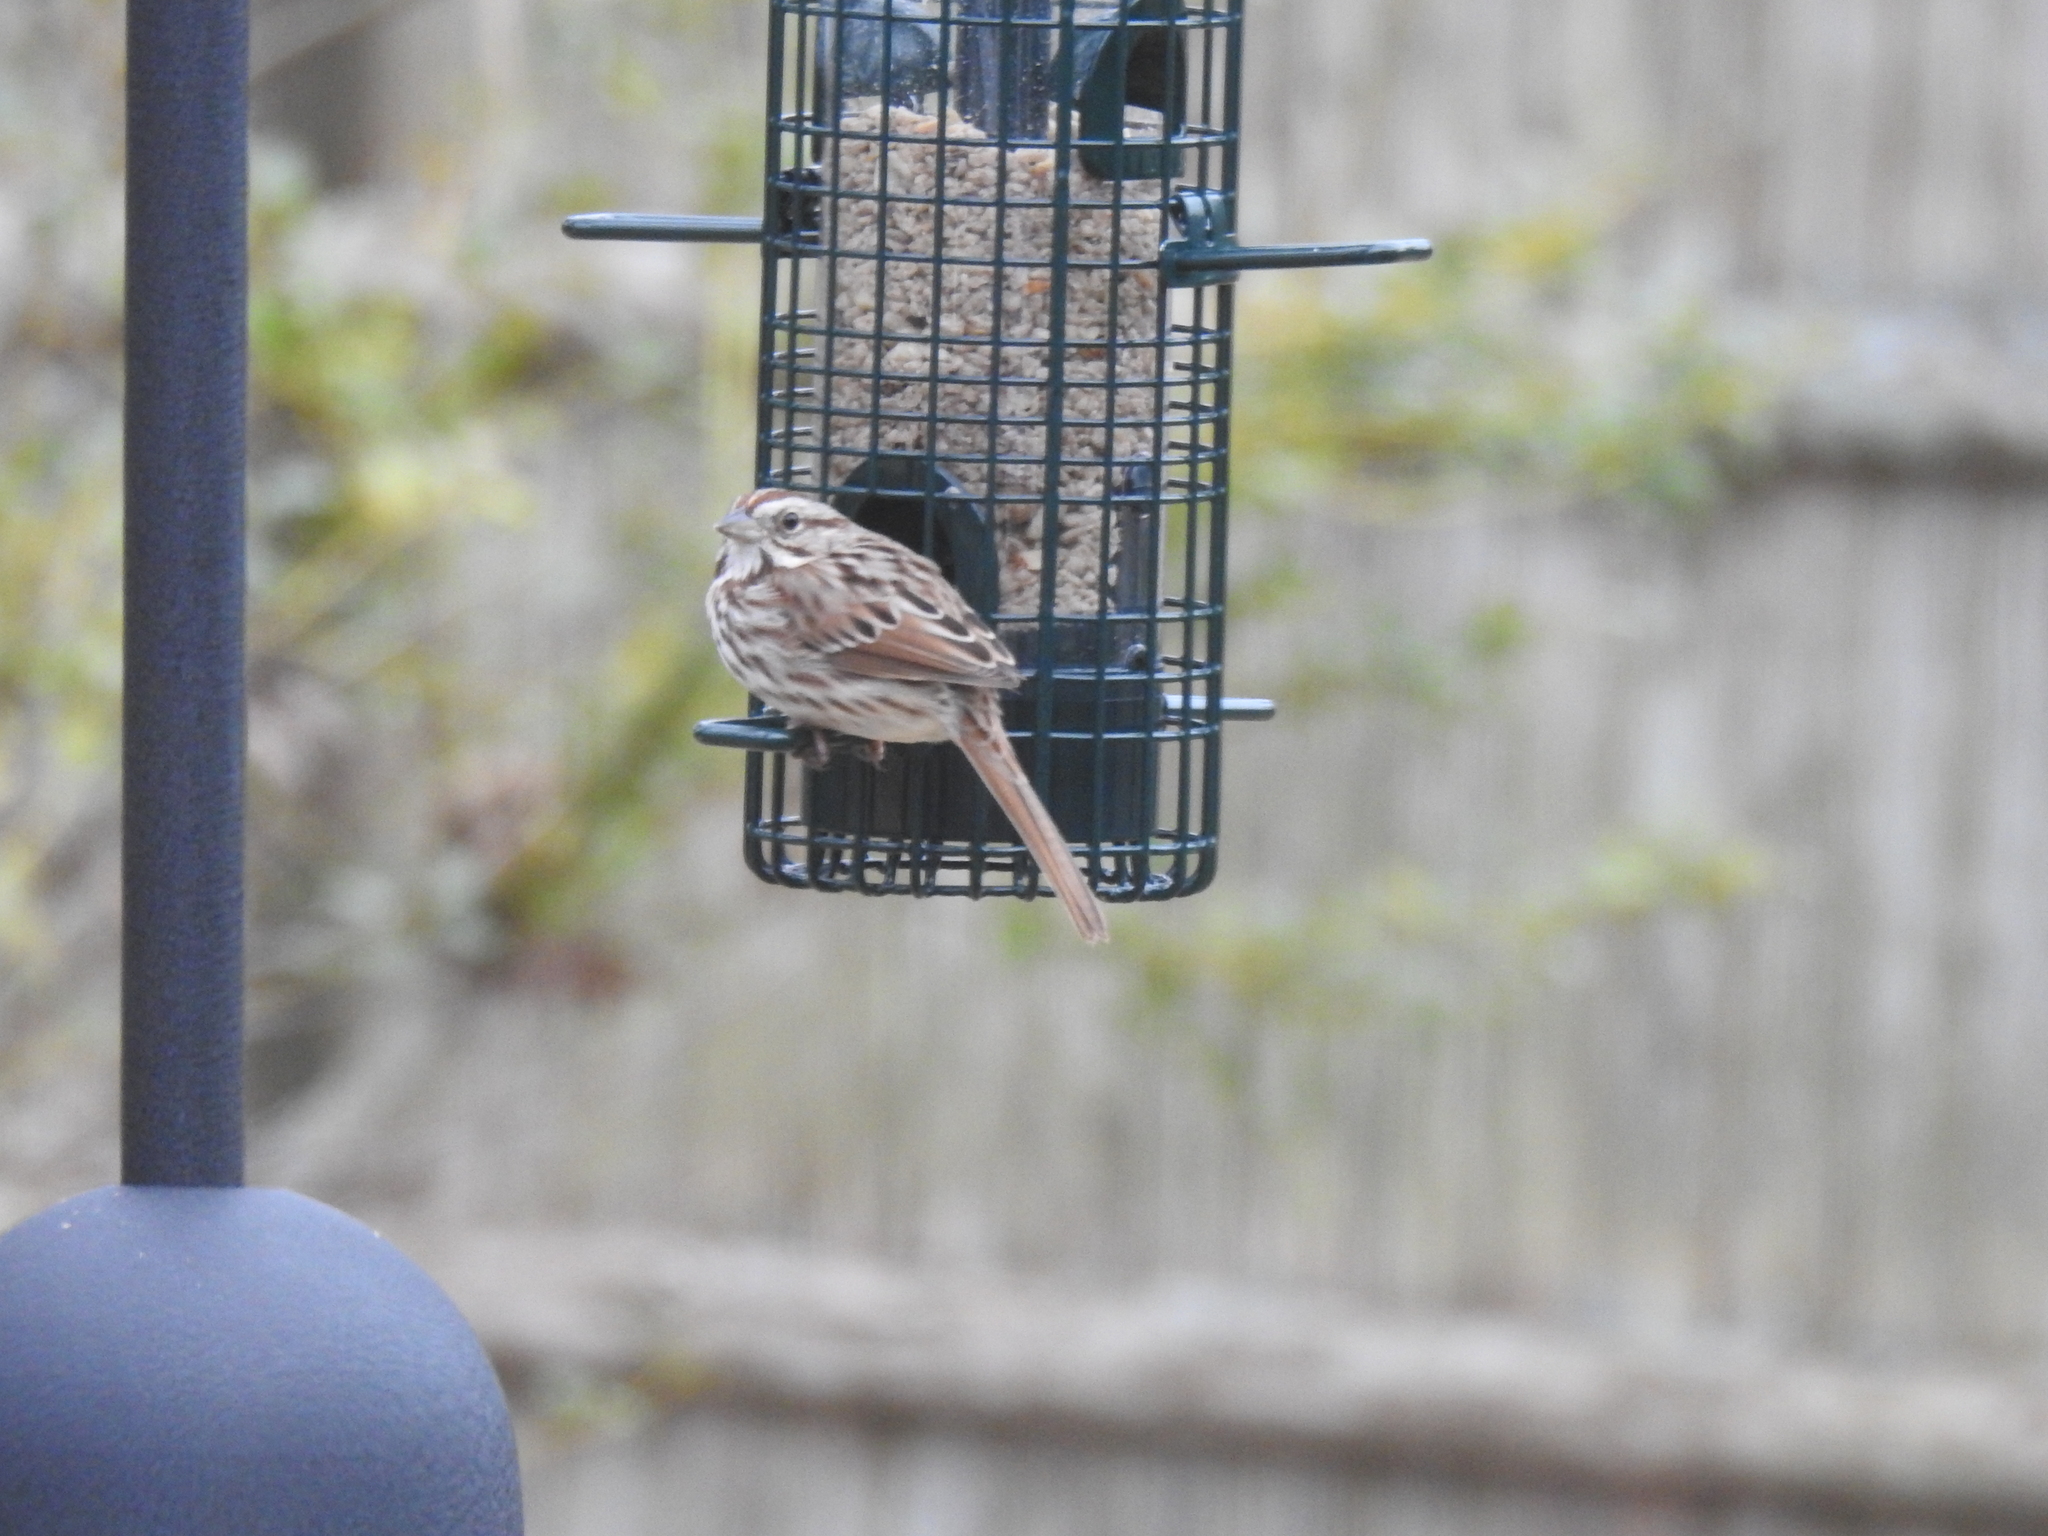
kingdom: Animalia
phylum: Chordata
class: Aves
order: Passeriformes
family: Passerellidae
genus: Melospiza
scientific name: Melospiza melodia
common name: Song sparrow
